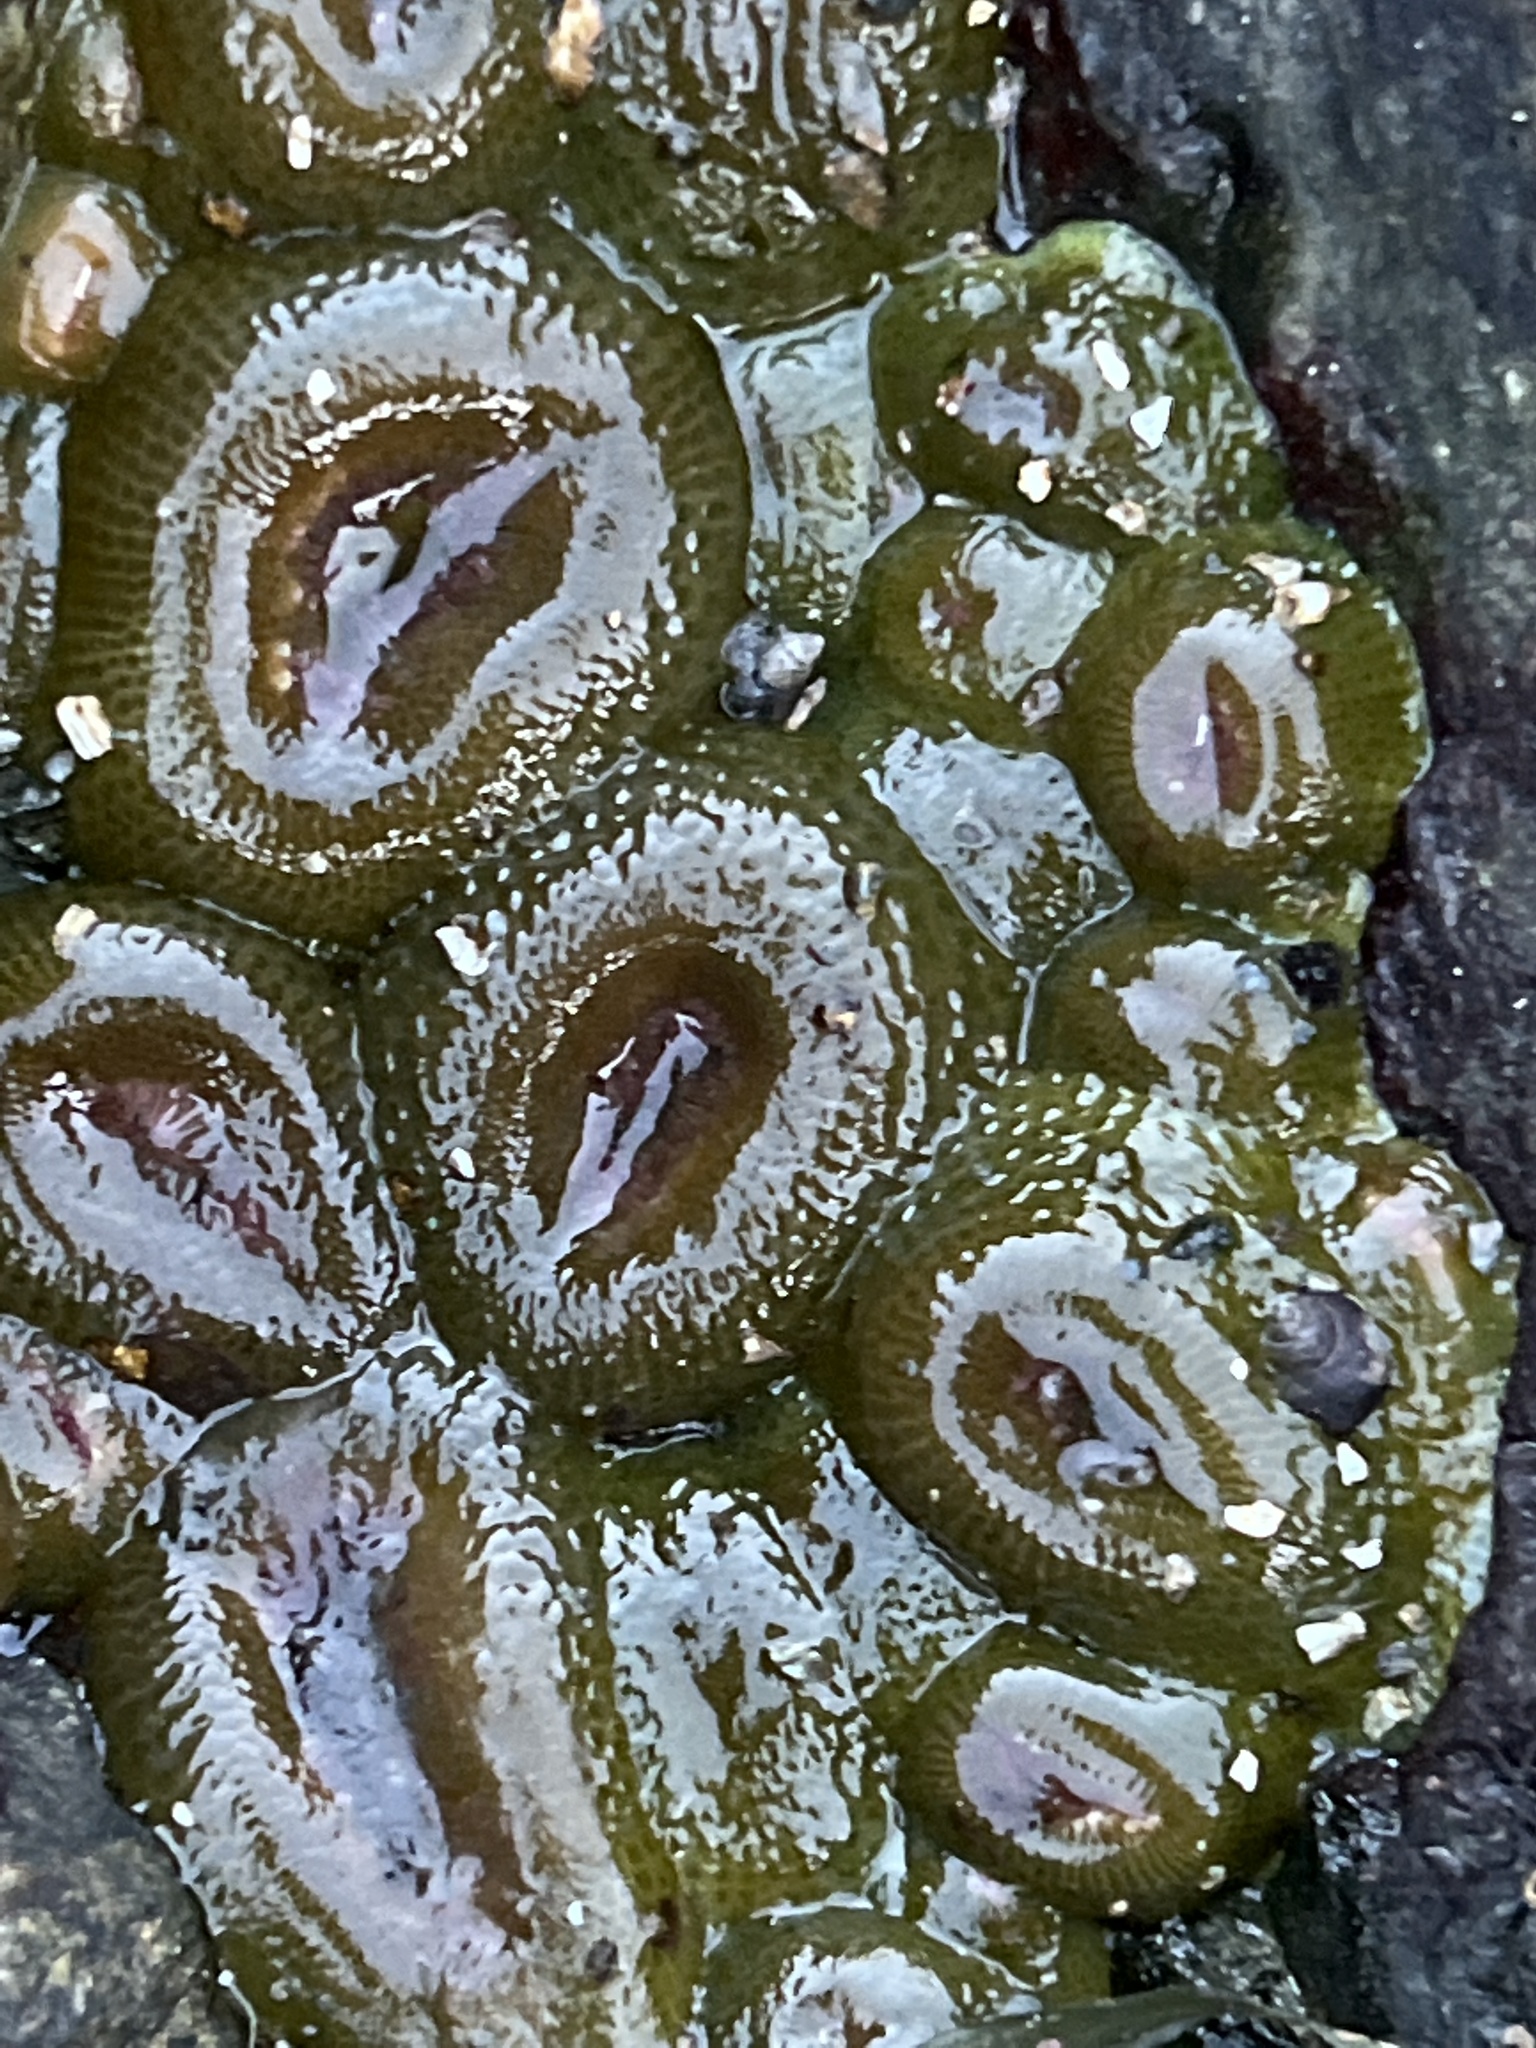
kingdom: Animalia
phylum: Cnidaria
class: Anthozoa
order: Actiniaria
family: Actiniidae
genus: Anthopleura
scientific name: Anthopleura elegantissima
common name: Clonal anemone
